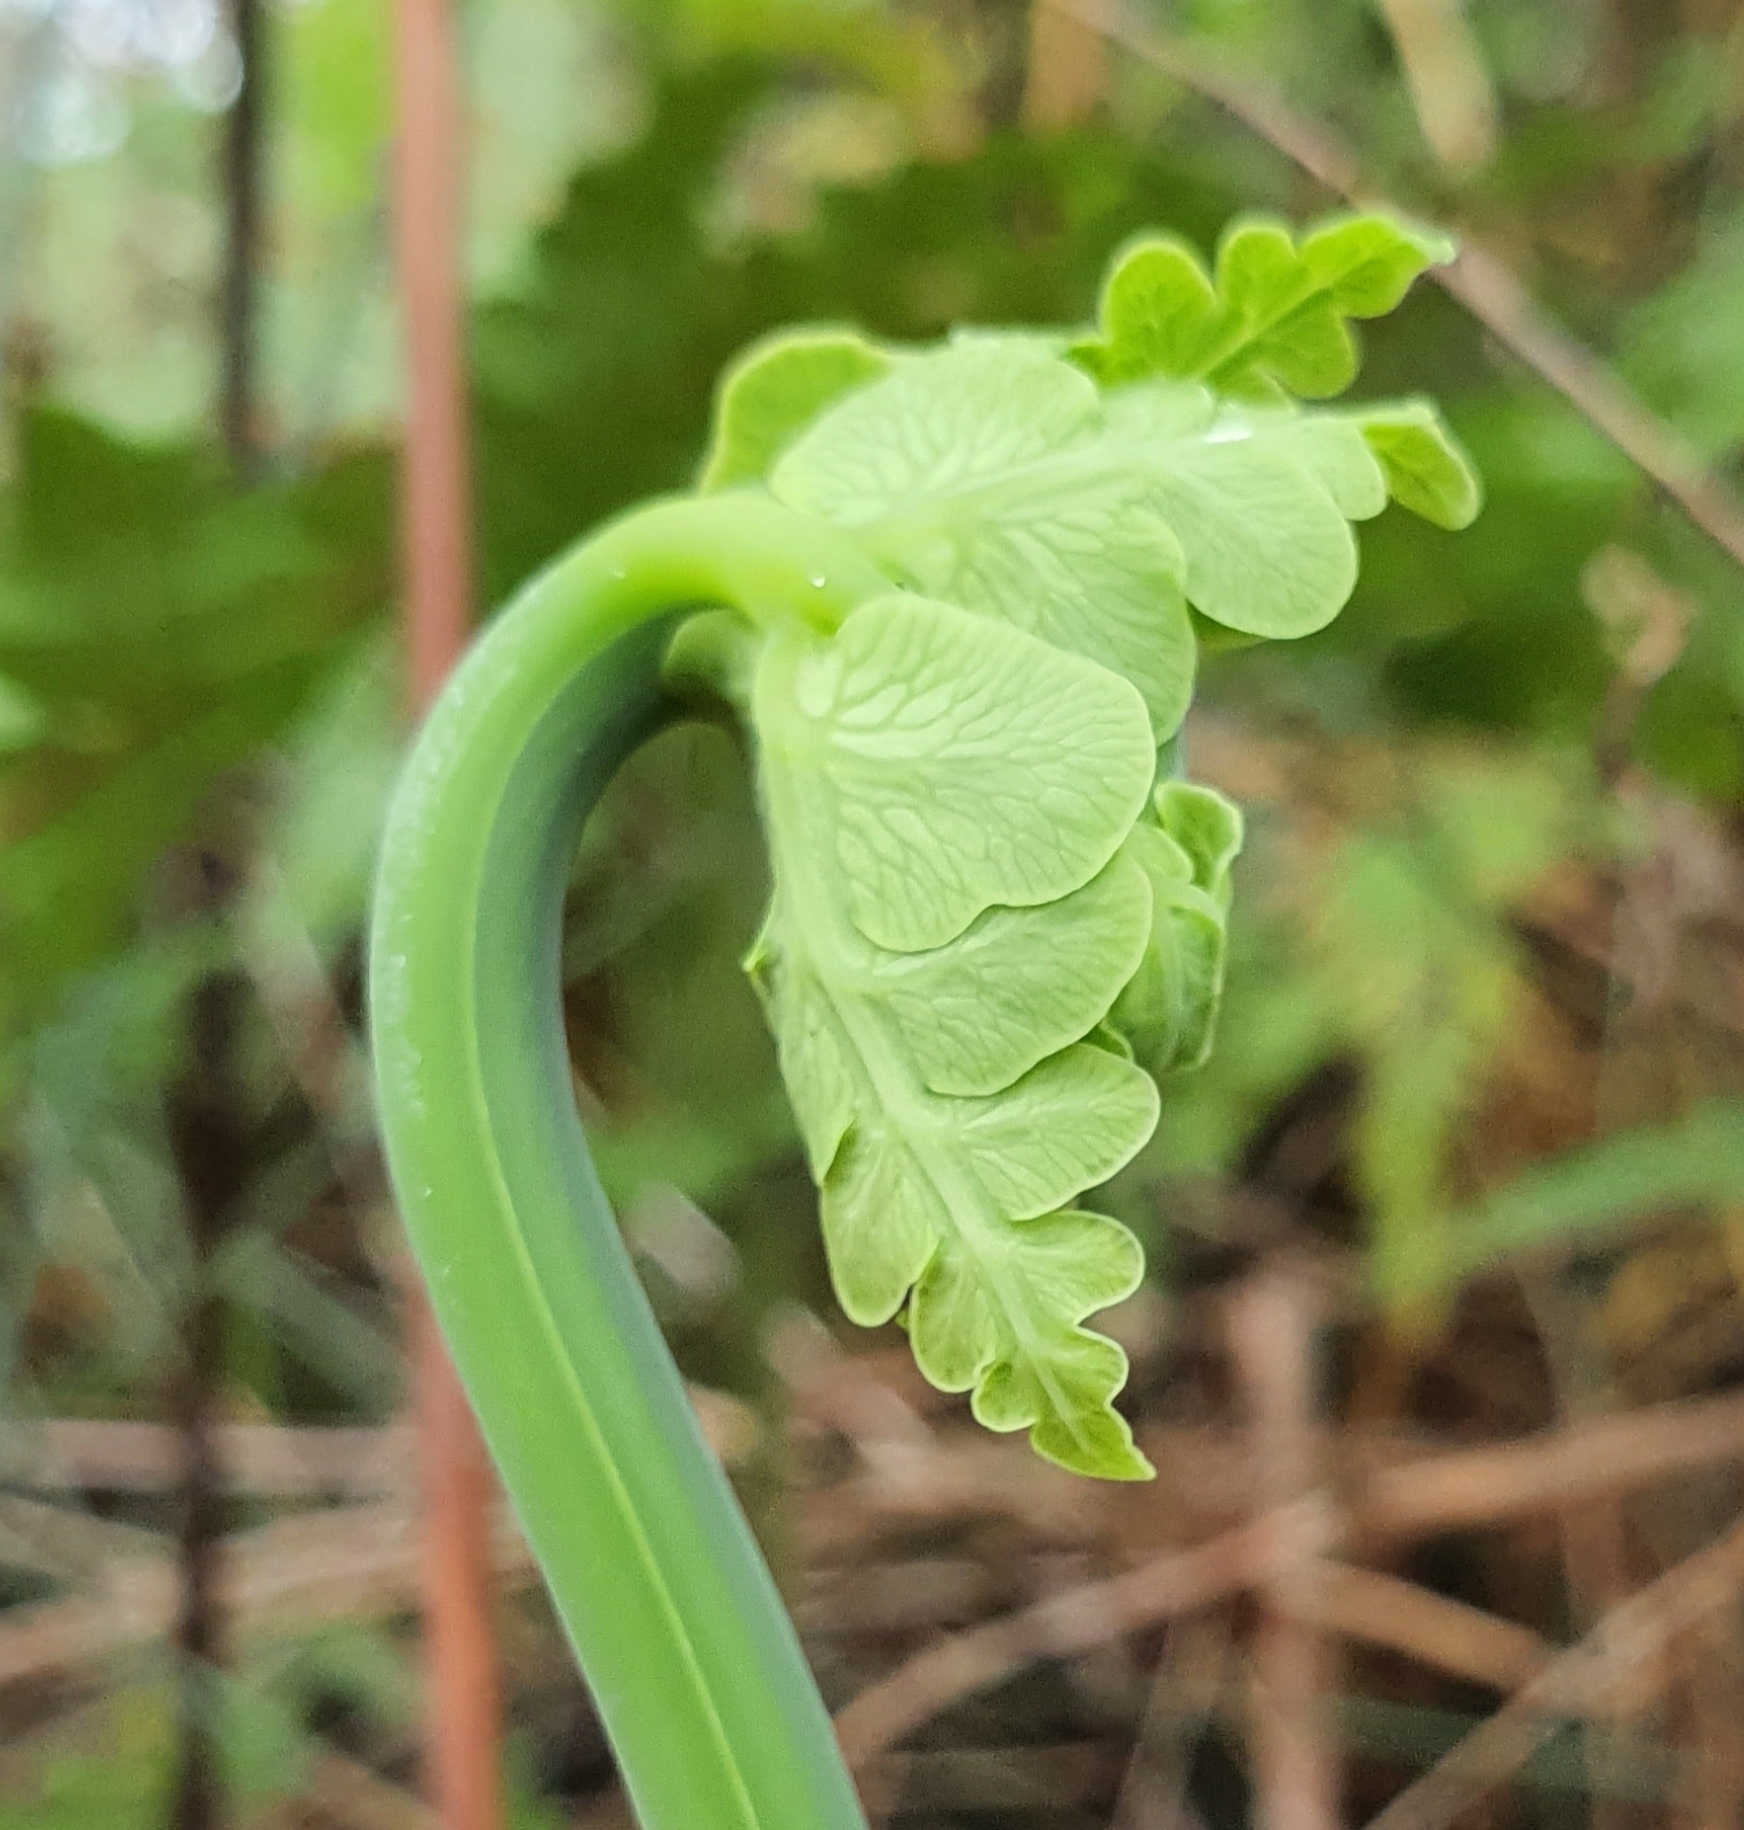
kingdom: Plantae
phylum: Tracheophyta
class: Polypodiopsida
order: Polypodiales
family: Dennstaedtiaceae
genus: Histiopteris
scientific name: Histiopteris incisa
